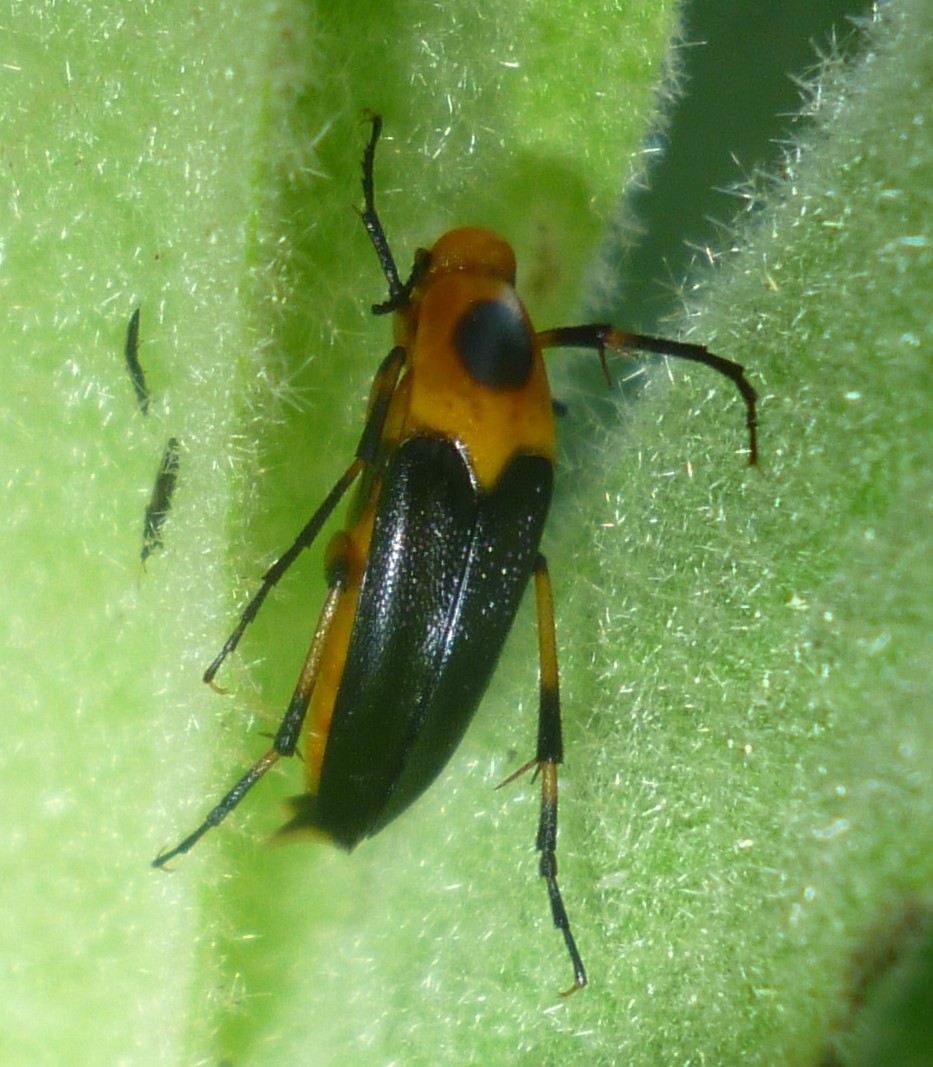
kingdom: Animalia
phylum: Arthropoda
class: Insecta
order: Coleoptera
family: Ripiphoridae
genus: Macrosiagon
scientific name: Macrosiagon limbatum
